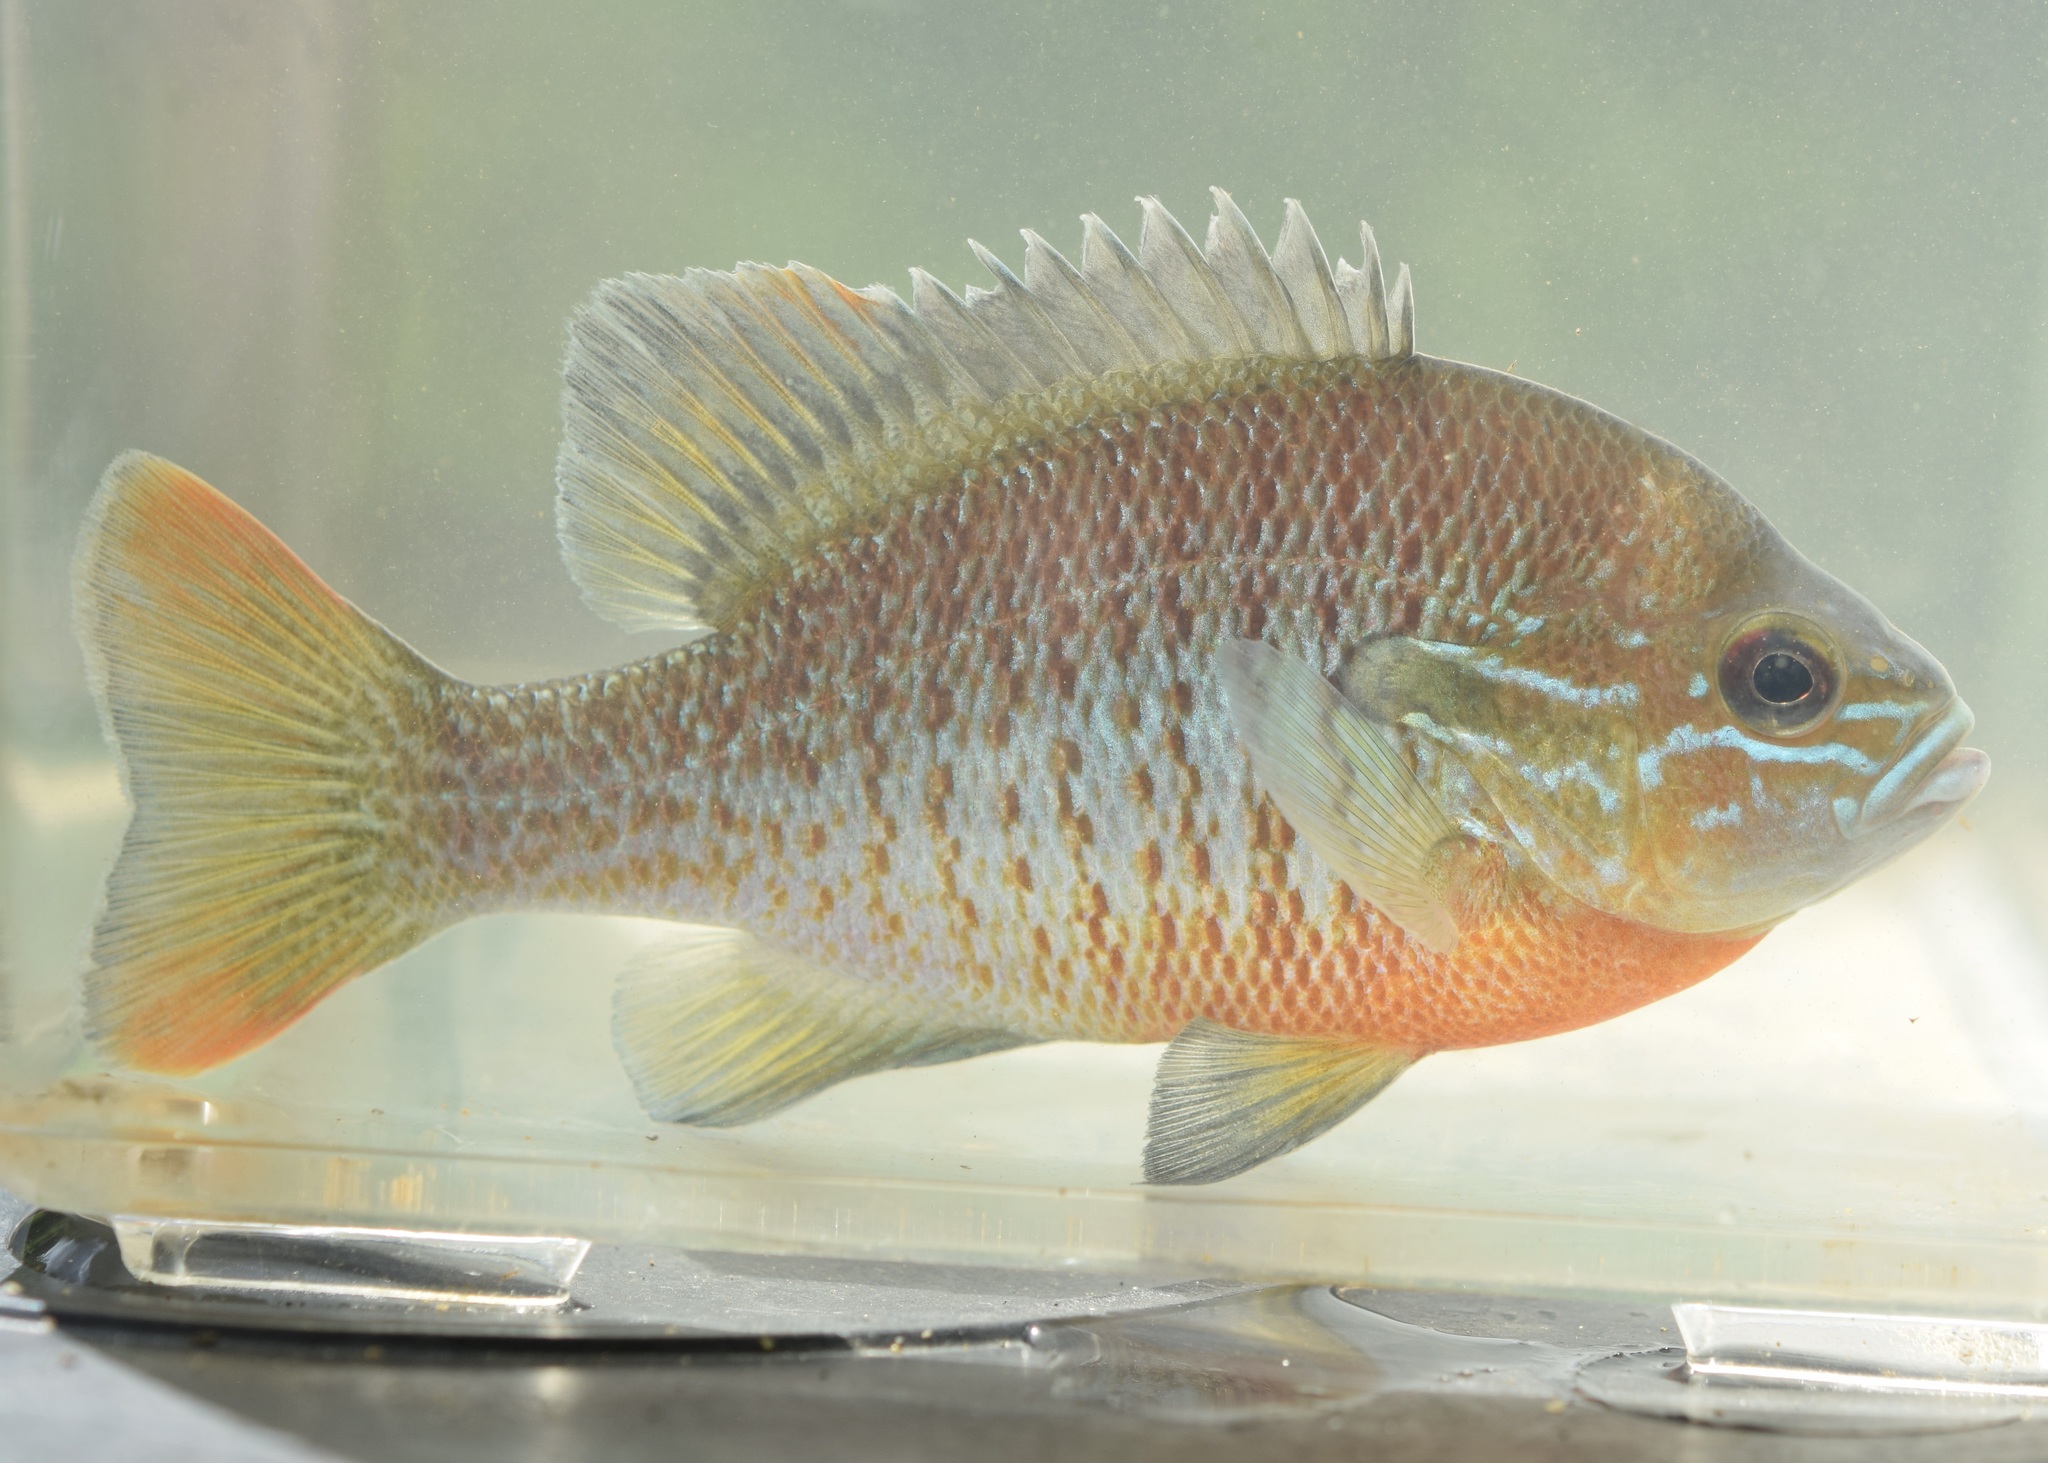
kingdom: Animalia
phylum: Chordata
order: Perciformes
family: Centrarchidae
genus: Lepomis
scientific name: Lepomis auritus
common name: Redbreast sunfish
